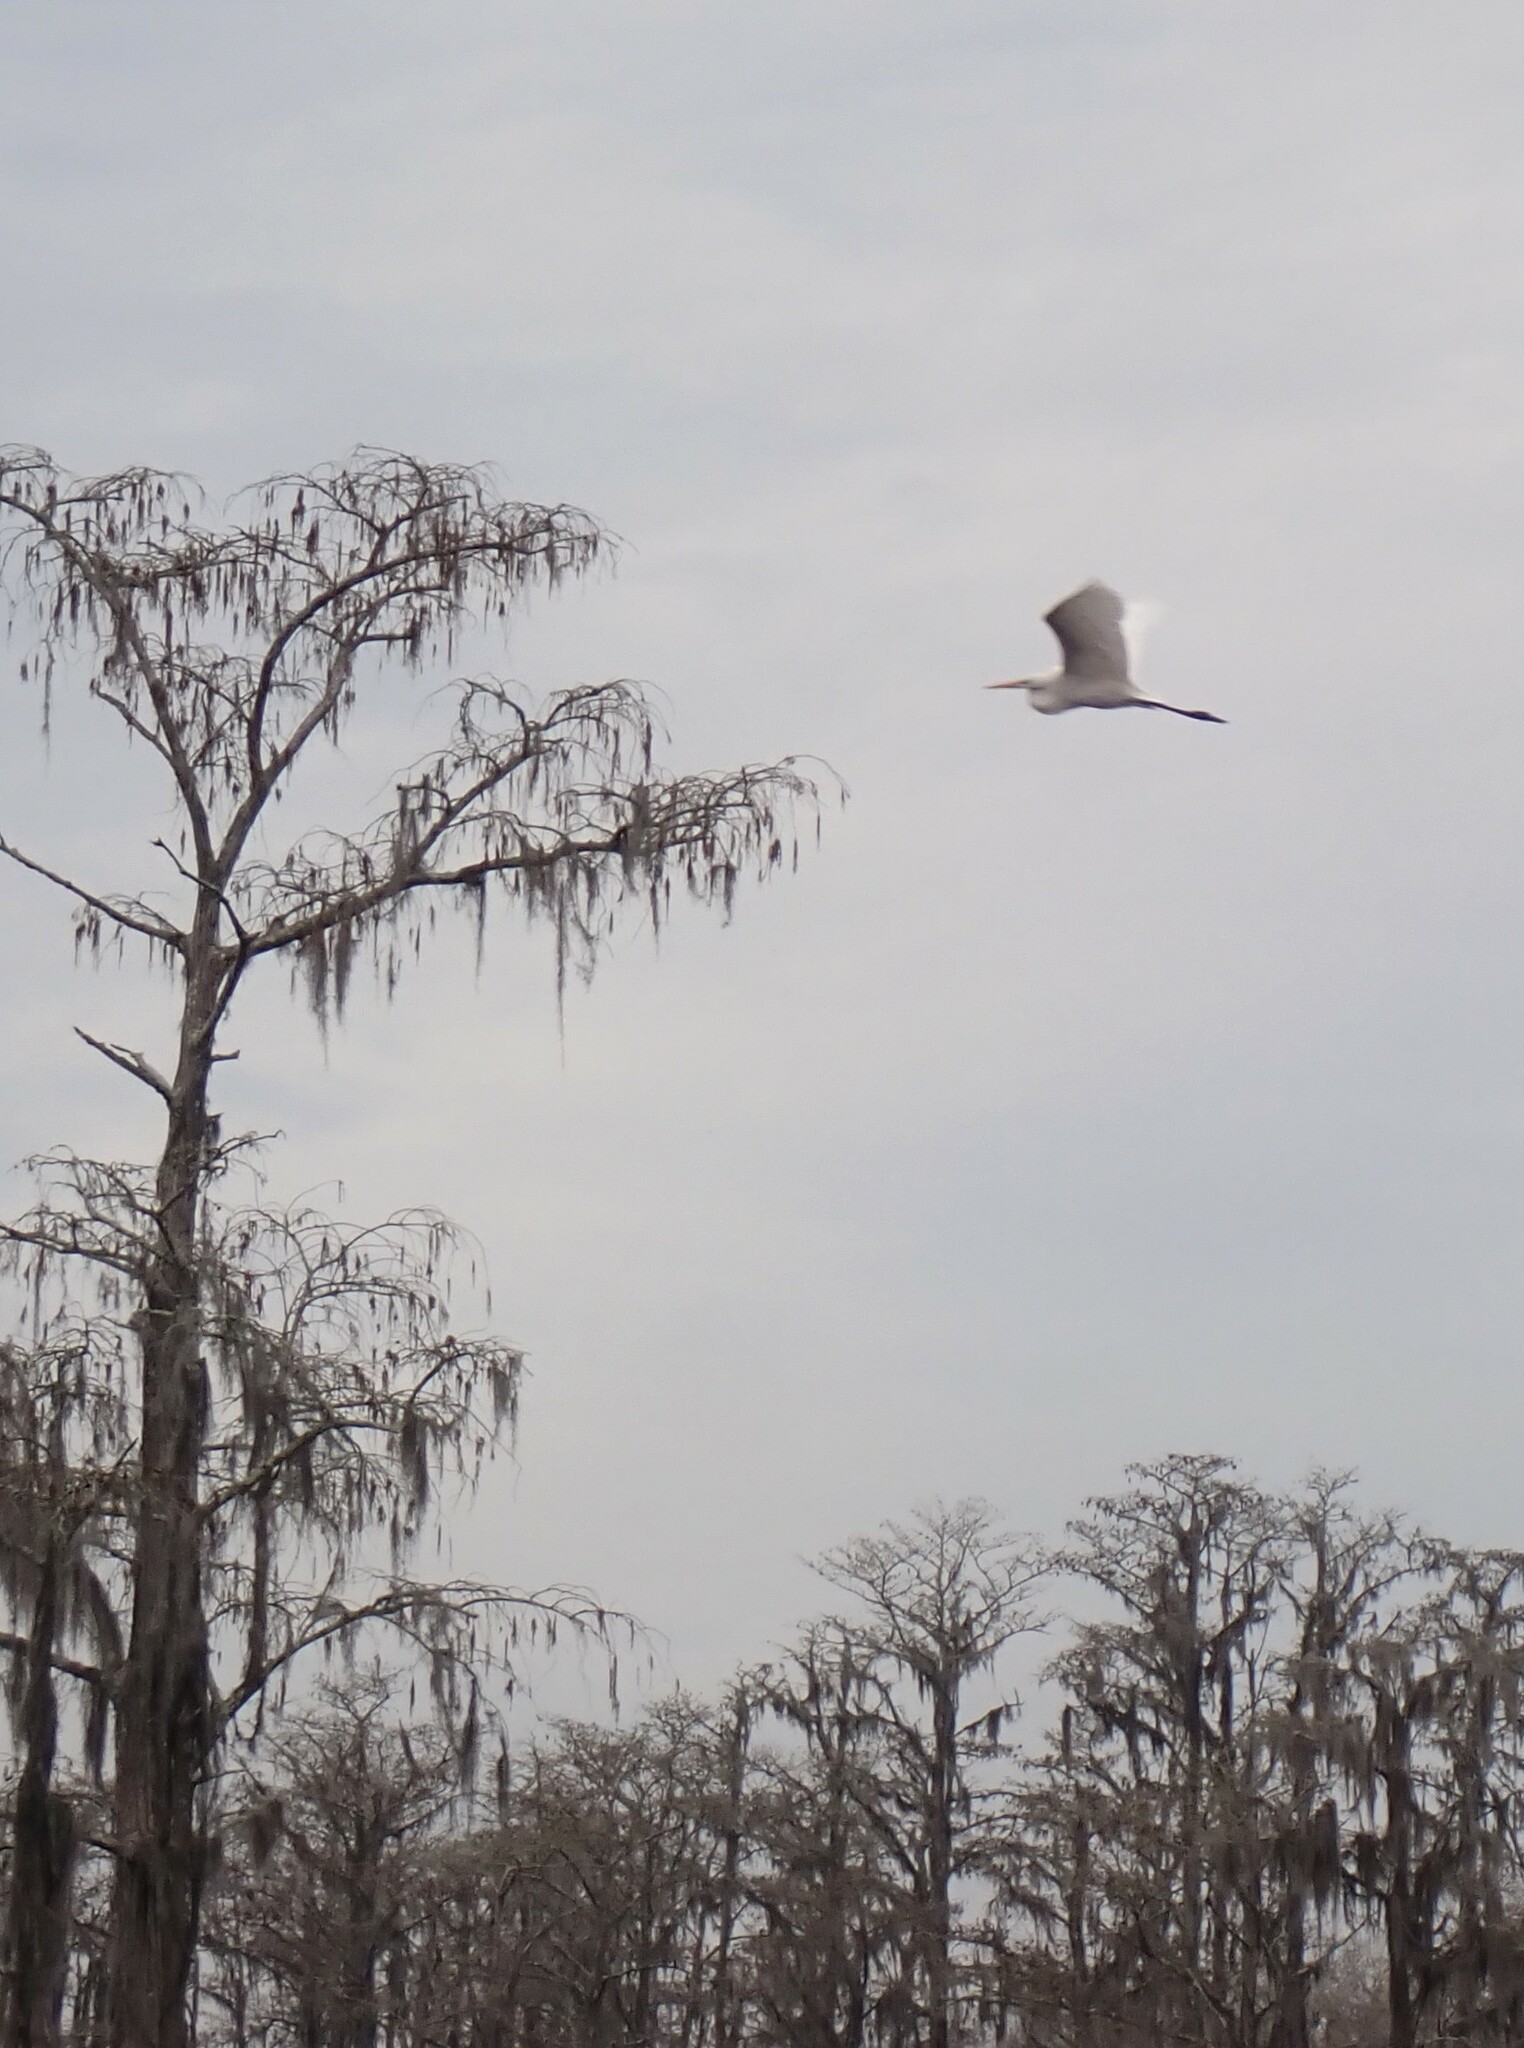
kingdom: Animalia
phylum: Chordata
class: Aves
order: Pelecaniformes
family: Ardeidae
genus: Ardea
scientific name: Ardea alba
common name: Great egret
